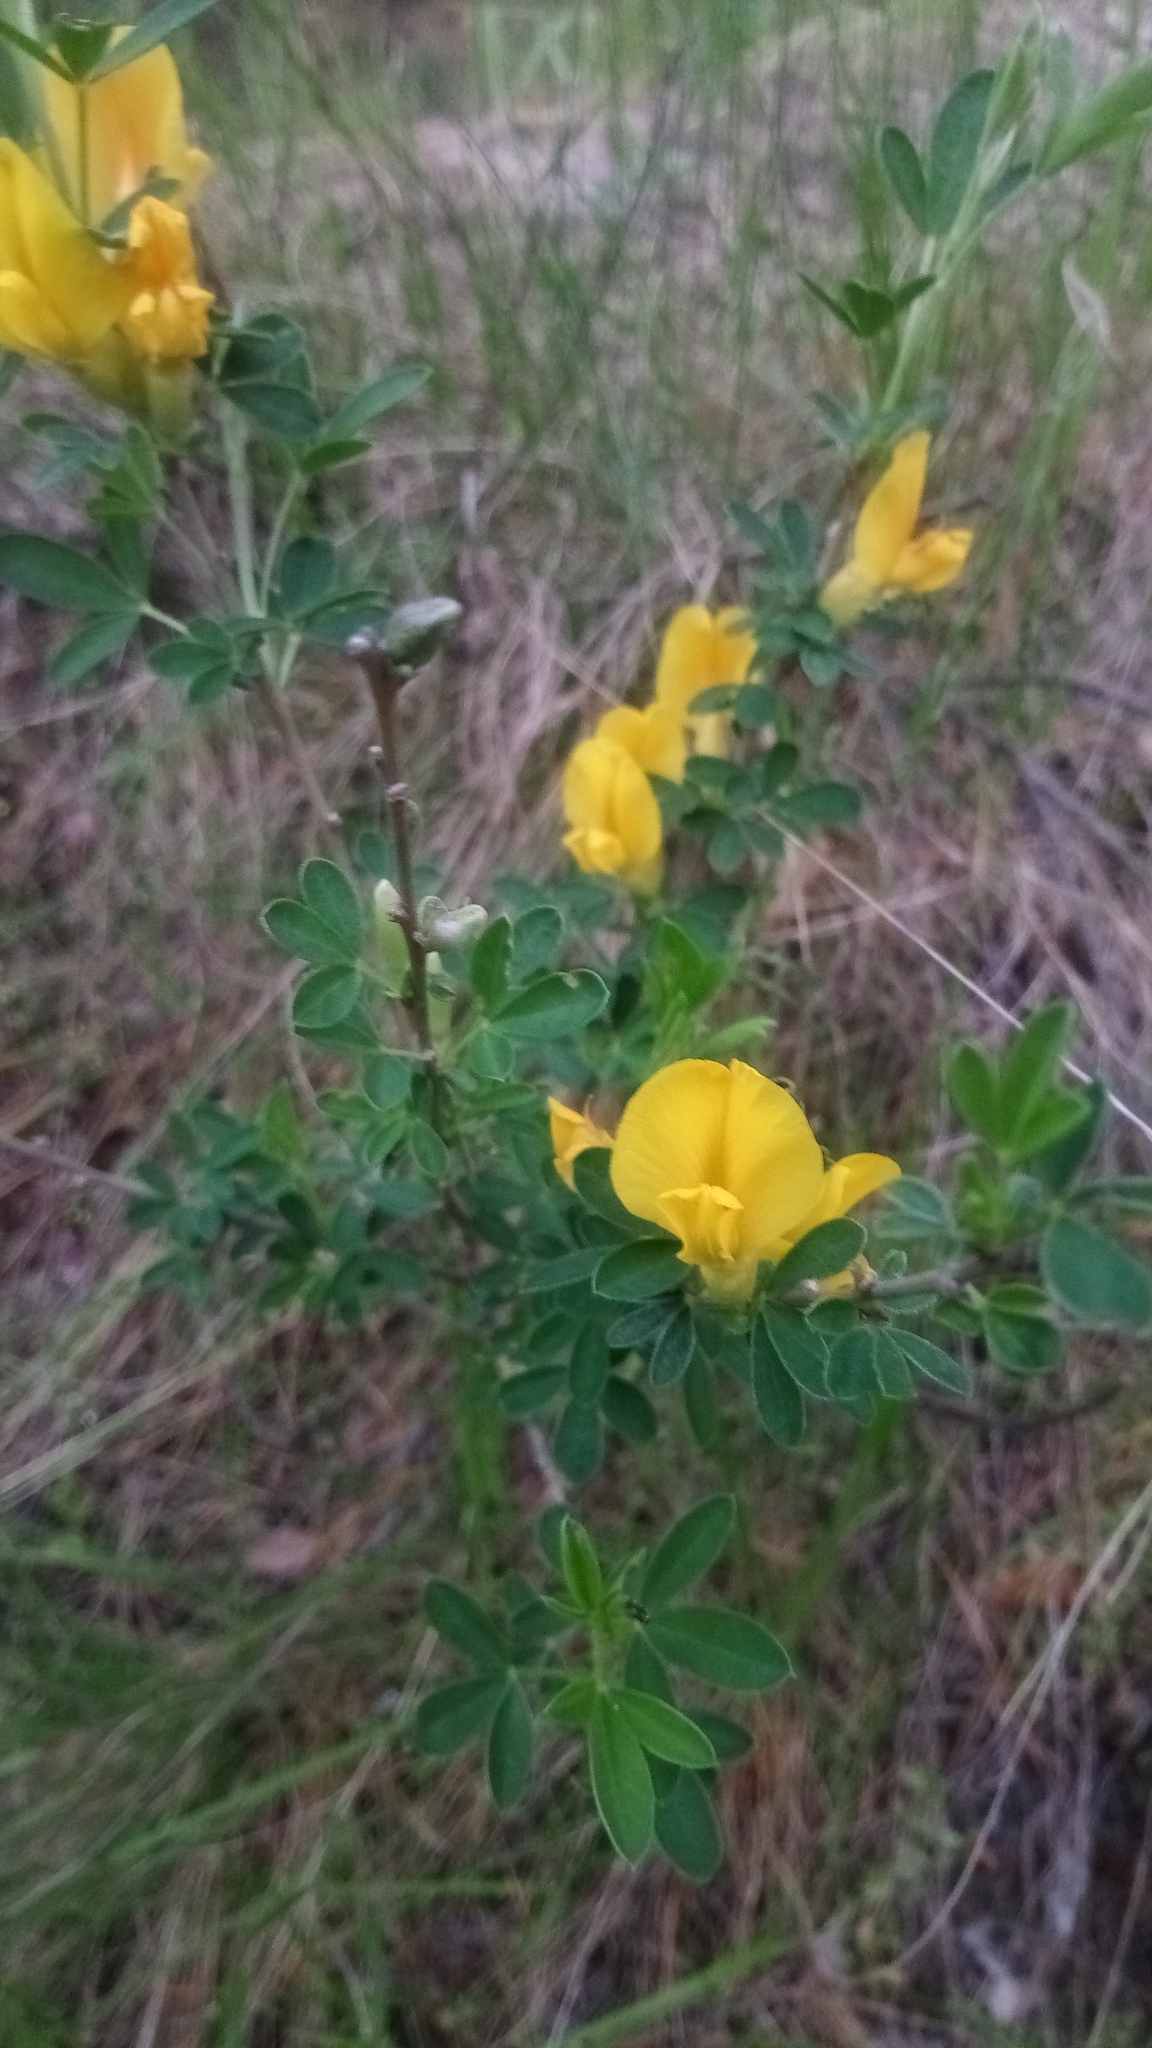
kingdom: Plantae
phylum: Tracheophyta
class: Magnoliopsida
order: Fabales
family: Fabaceae
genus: Chamaecytisus
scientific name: Chamaecytisus ruthenicus
